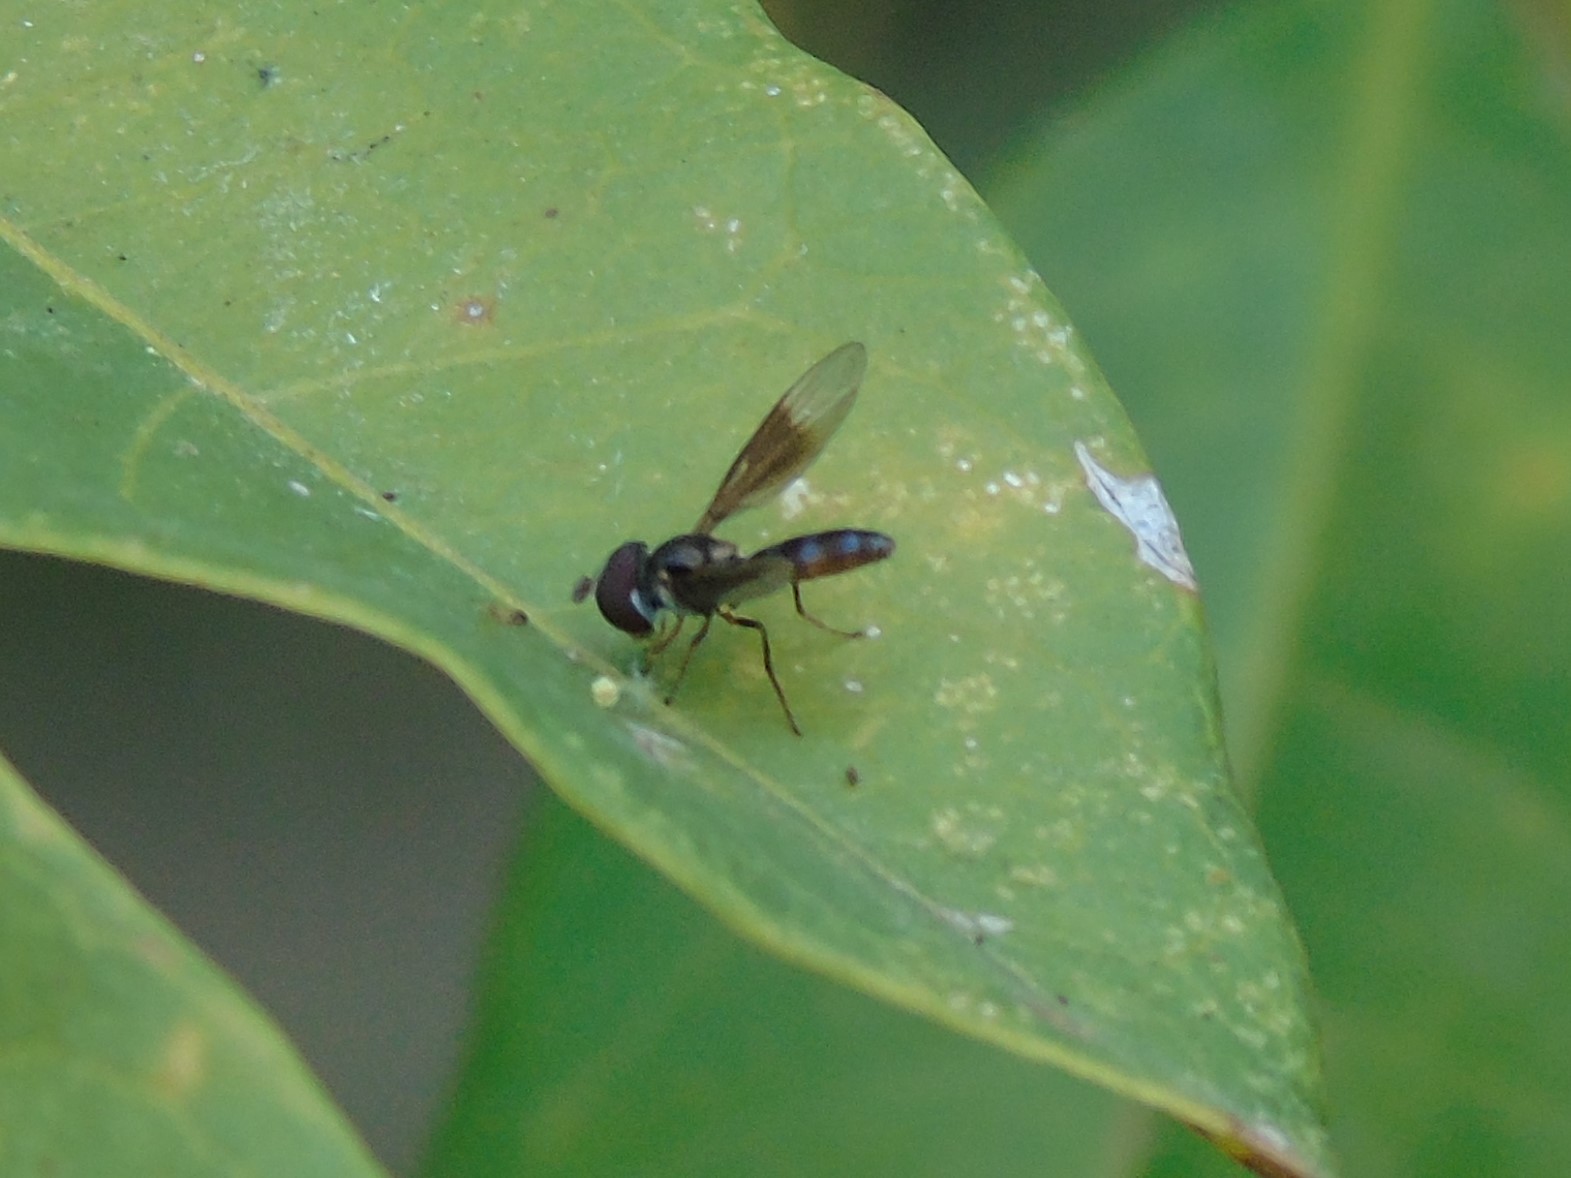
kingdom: Animalia
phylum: Arthropoda
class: Insecta
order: Diptera
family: Syrphidae
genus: Ocyptamus
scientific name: Ocyptamus
